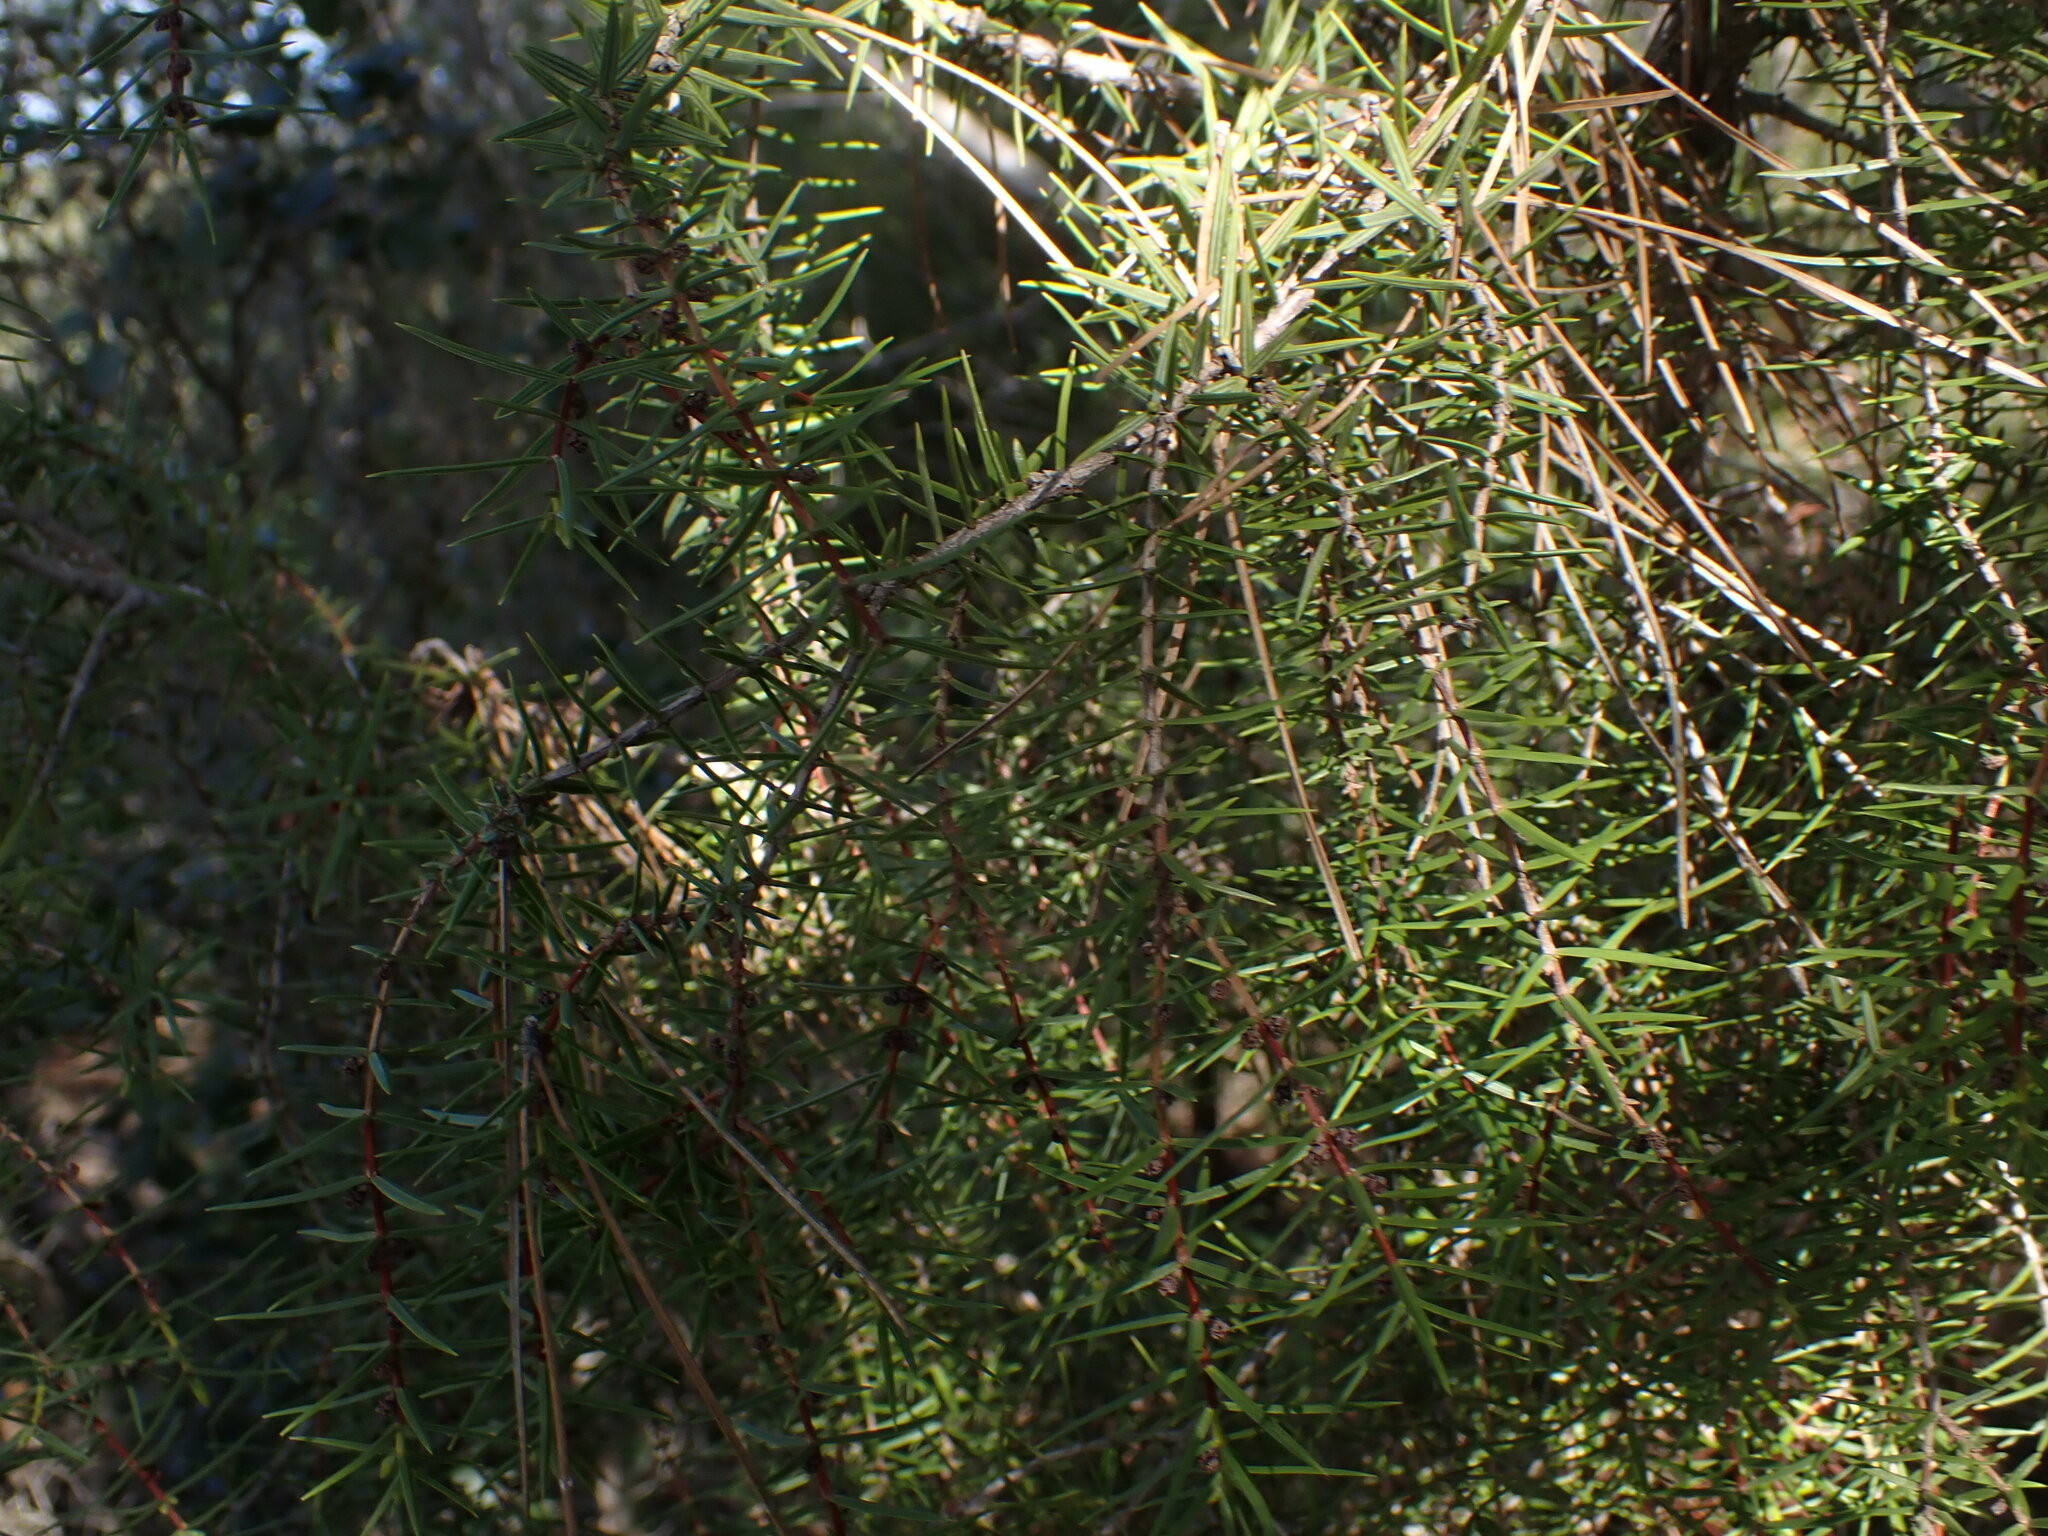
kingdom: Plantae
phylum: Tracheophyta
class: Pinopsida
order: Pinales
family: Cupressaceae
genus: Juniperus
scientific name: Juniperus oxycedrus
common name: Prickly juniper
